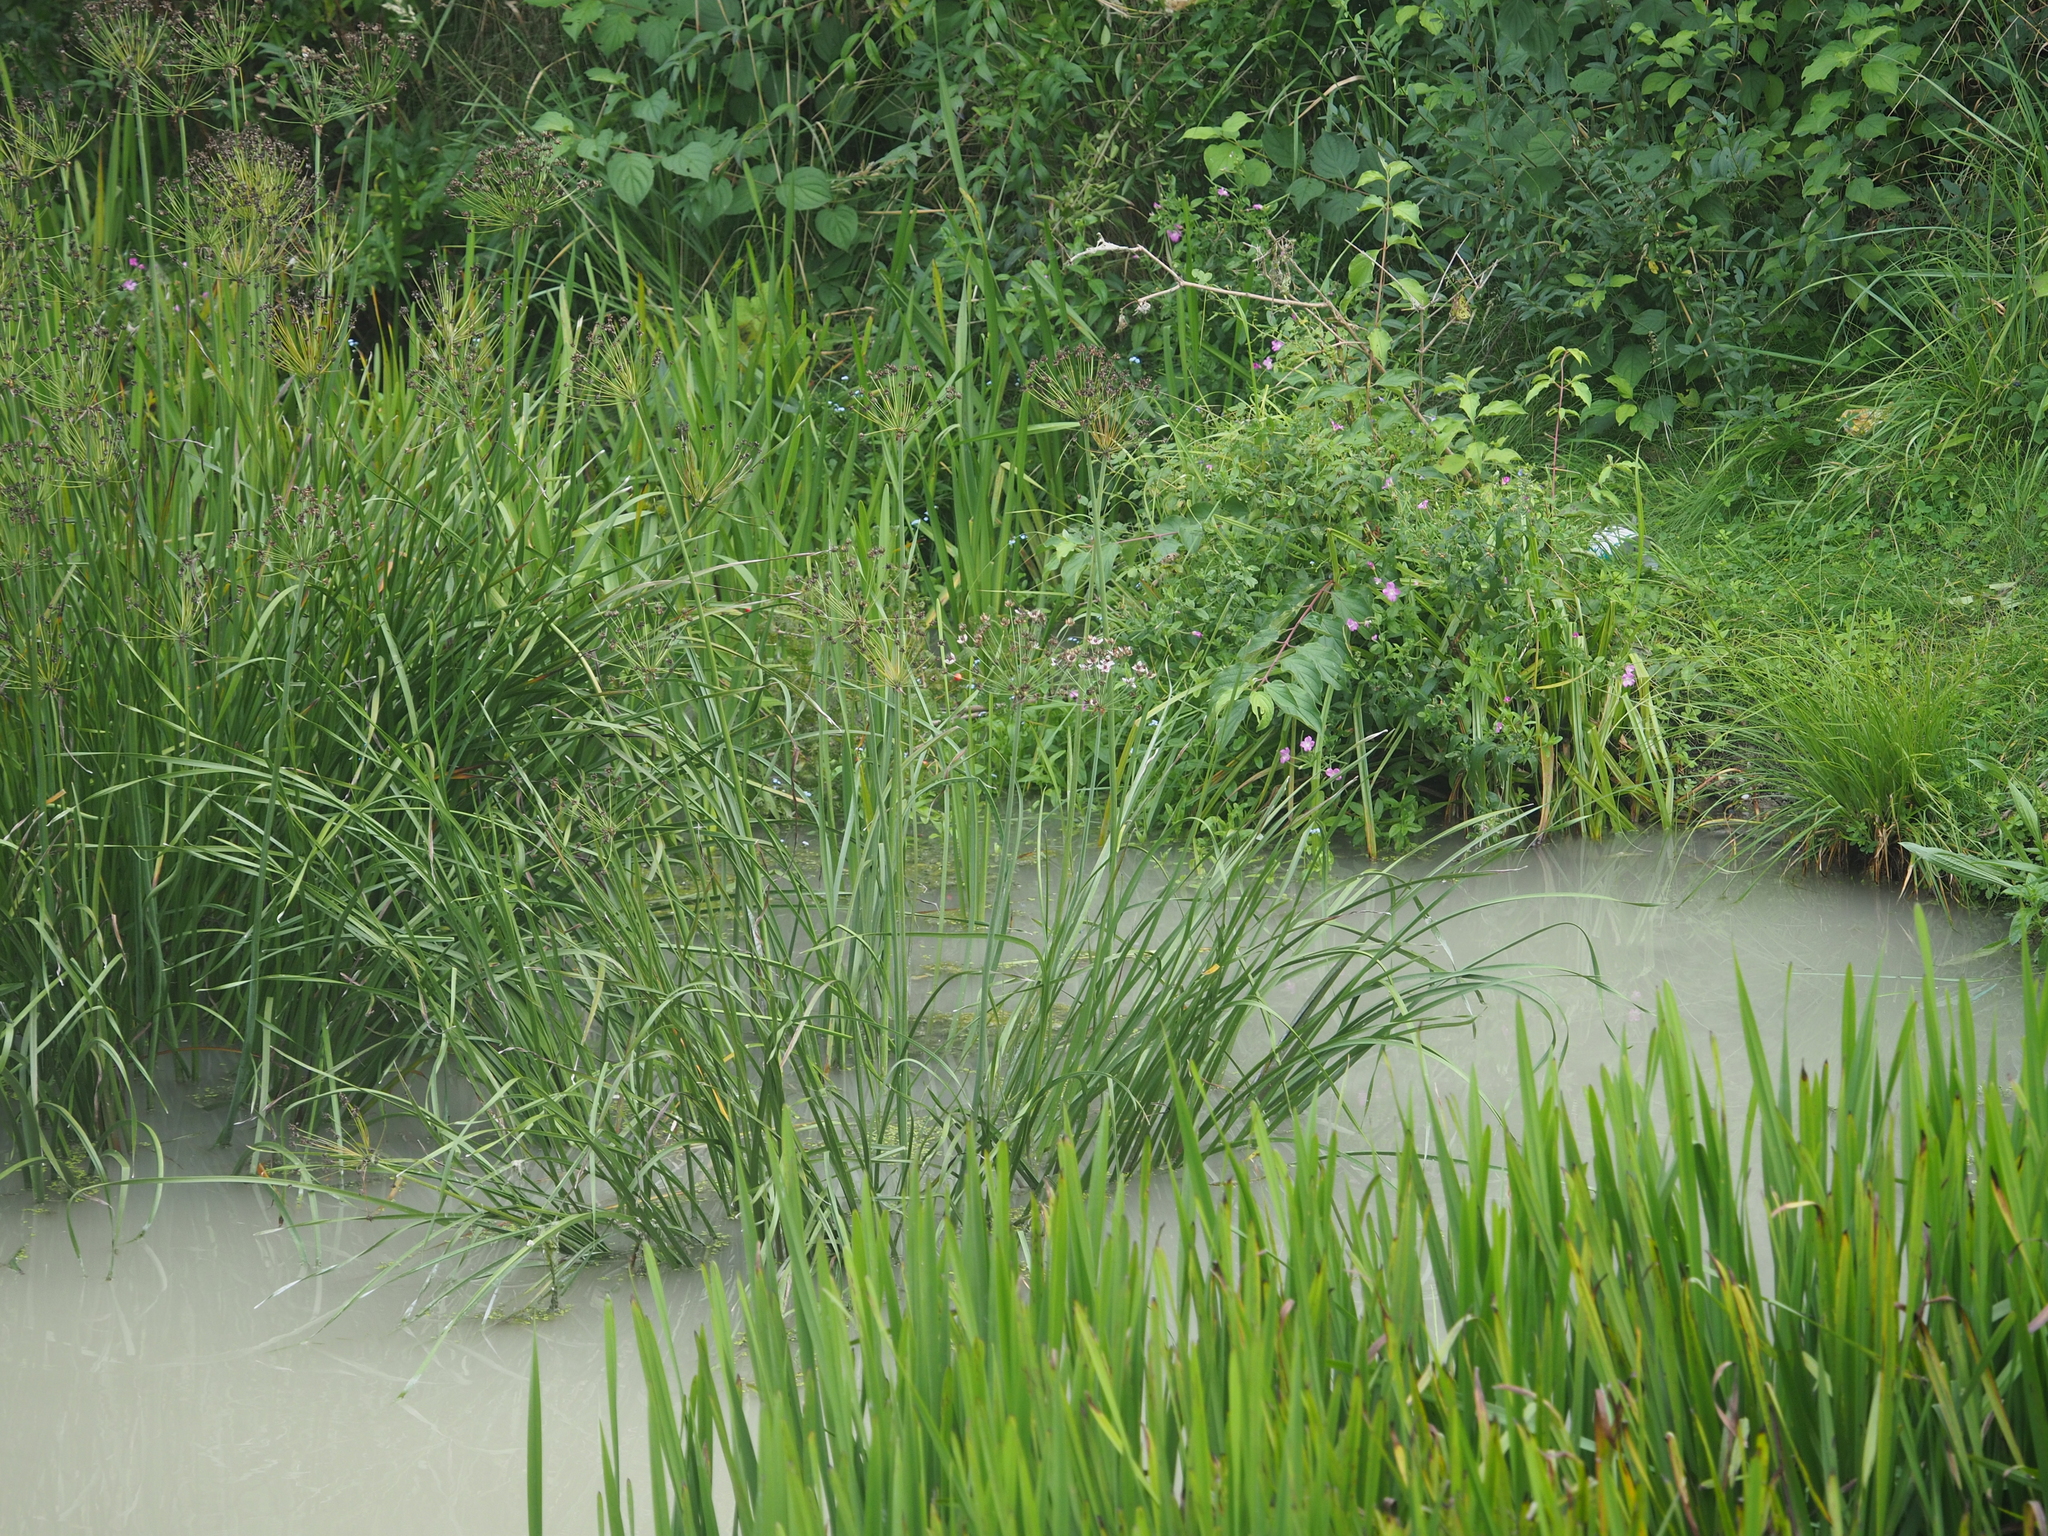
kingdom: Plantae
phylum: Tracheophyta
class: Liliopsida
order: Alismatales
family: Butomaceae
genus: Butomus
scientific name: Butomus umbellatus
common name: Flowering-rush
